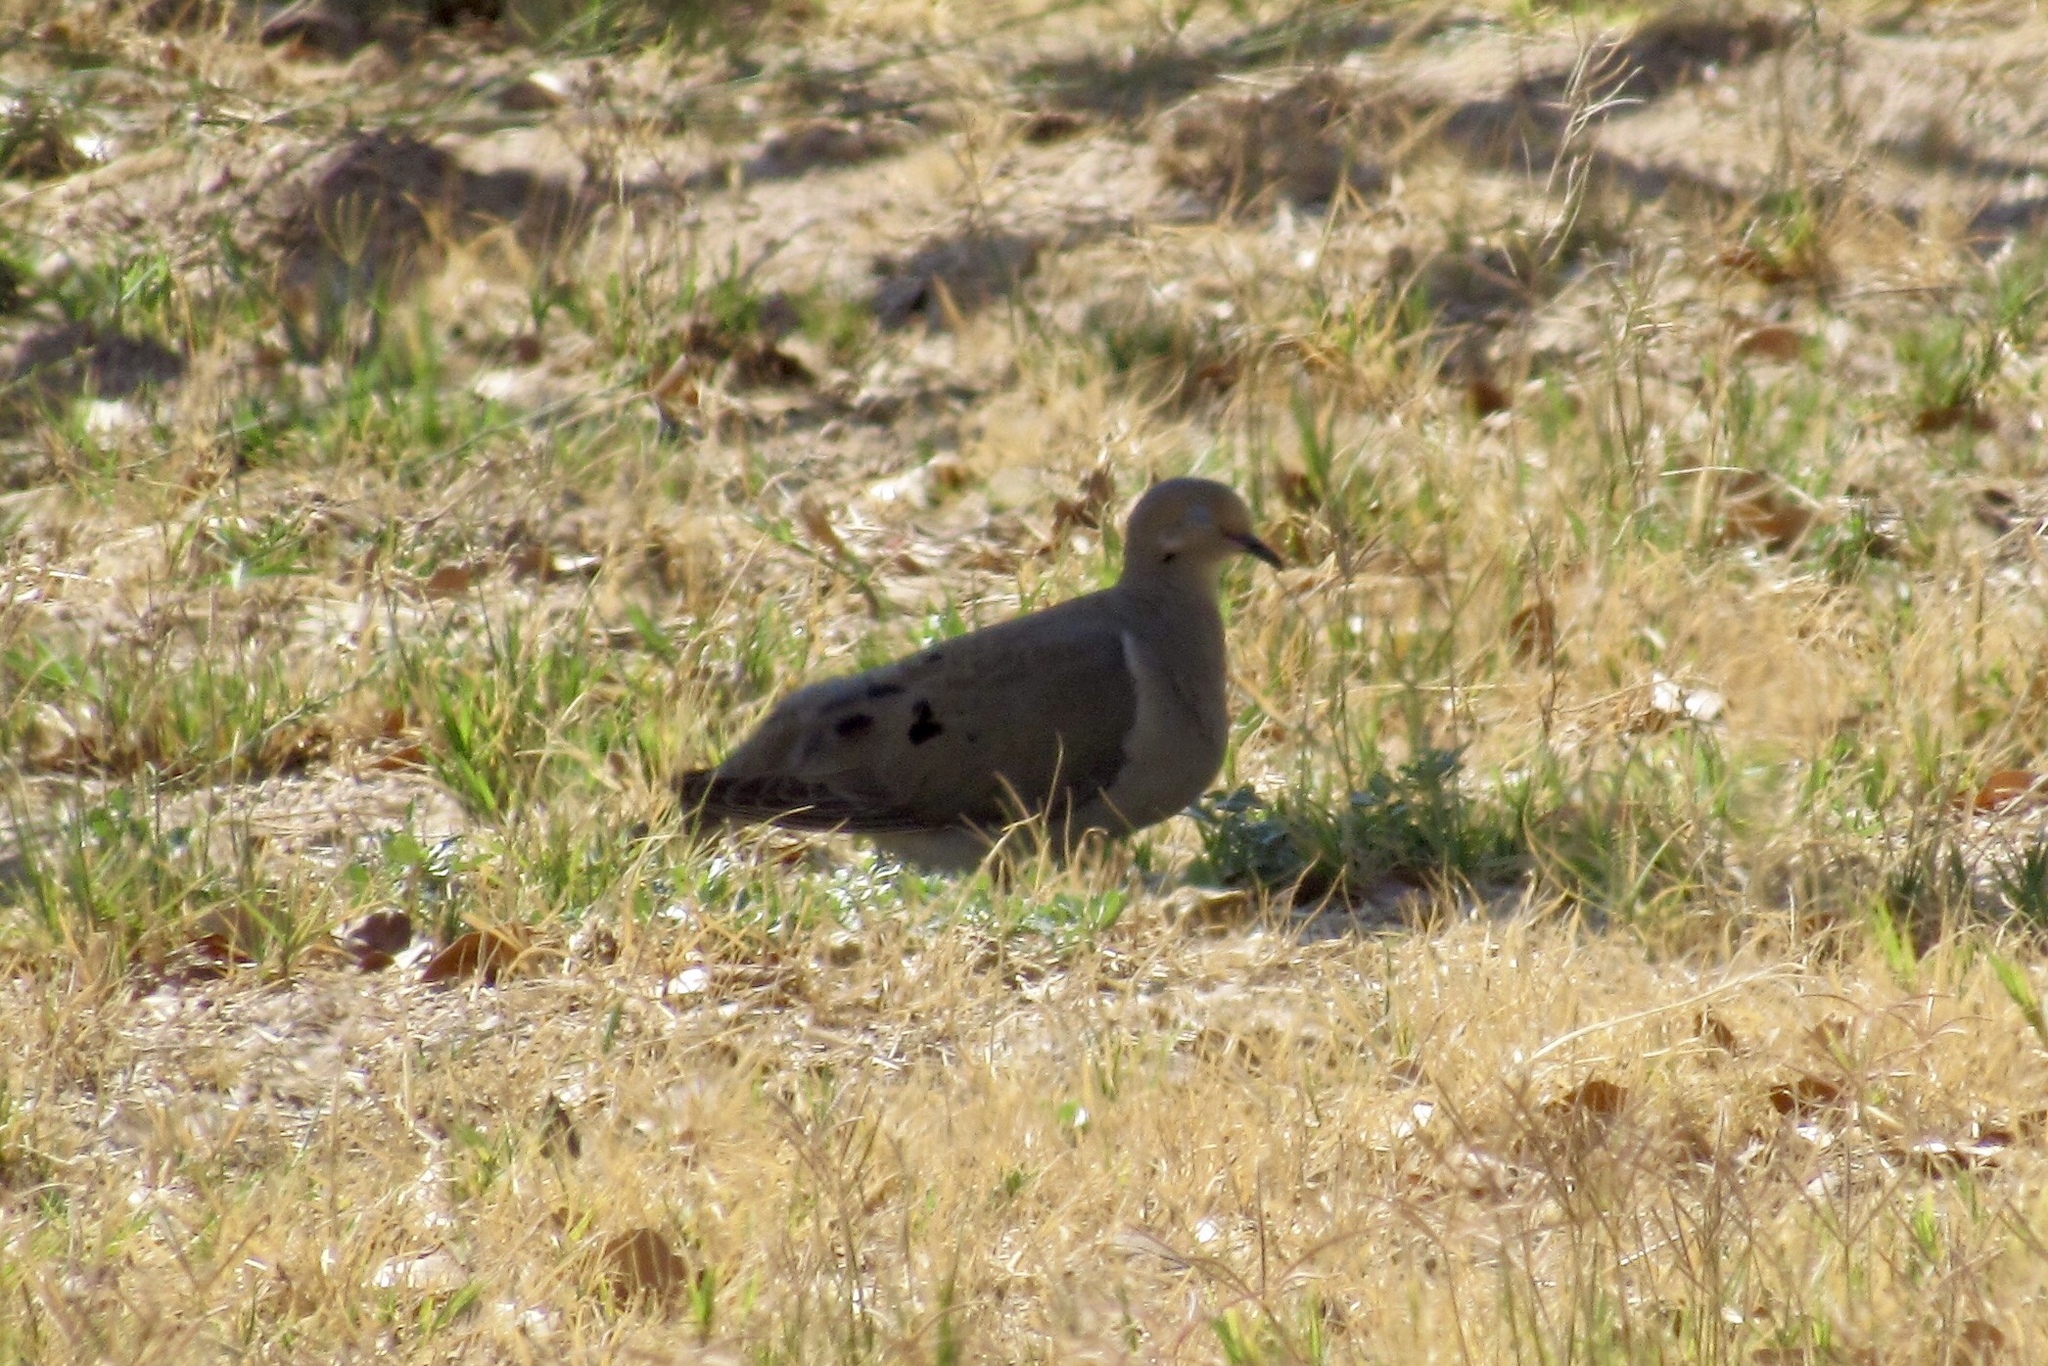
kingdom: Animalia
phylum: Chordata
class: Aves
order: Columbiformes
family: Columbidae
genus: Zenaida
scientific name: Zenaida macroura
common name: Mourning dove
